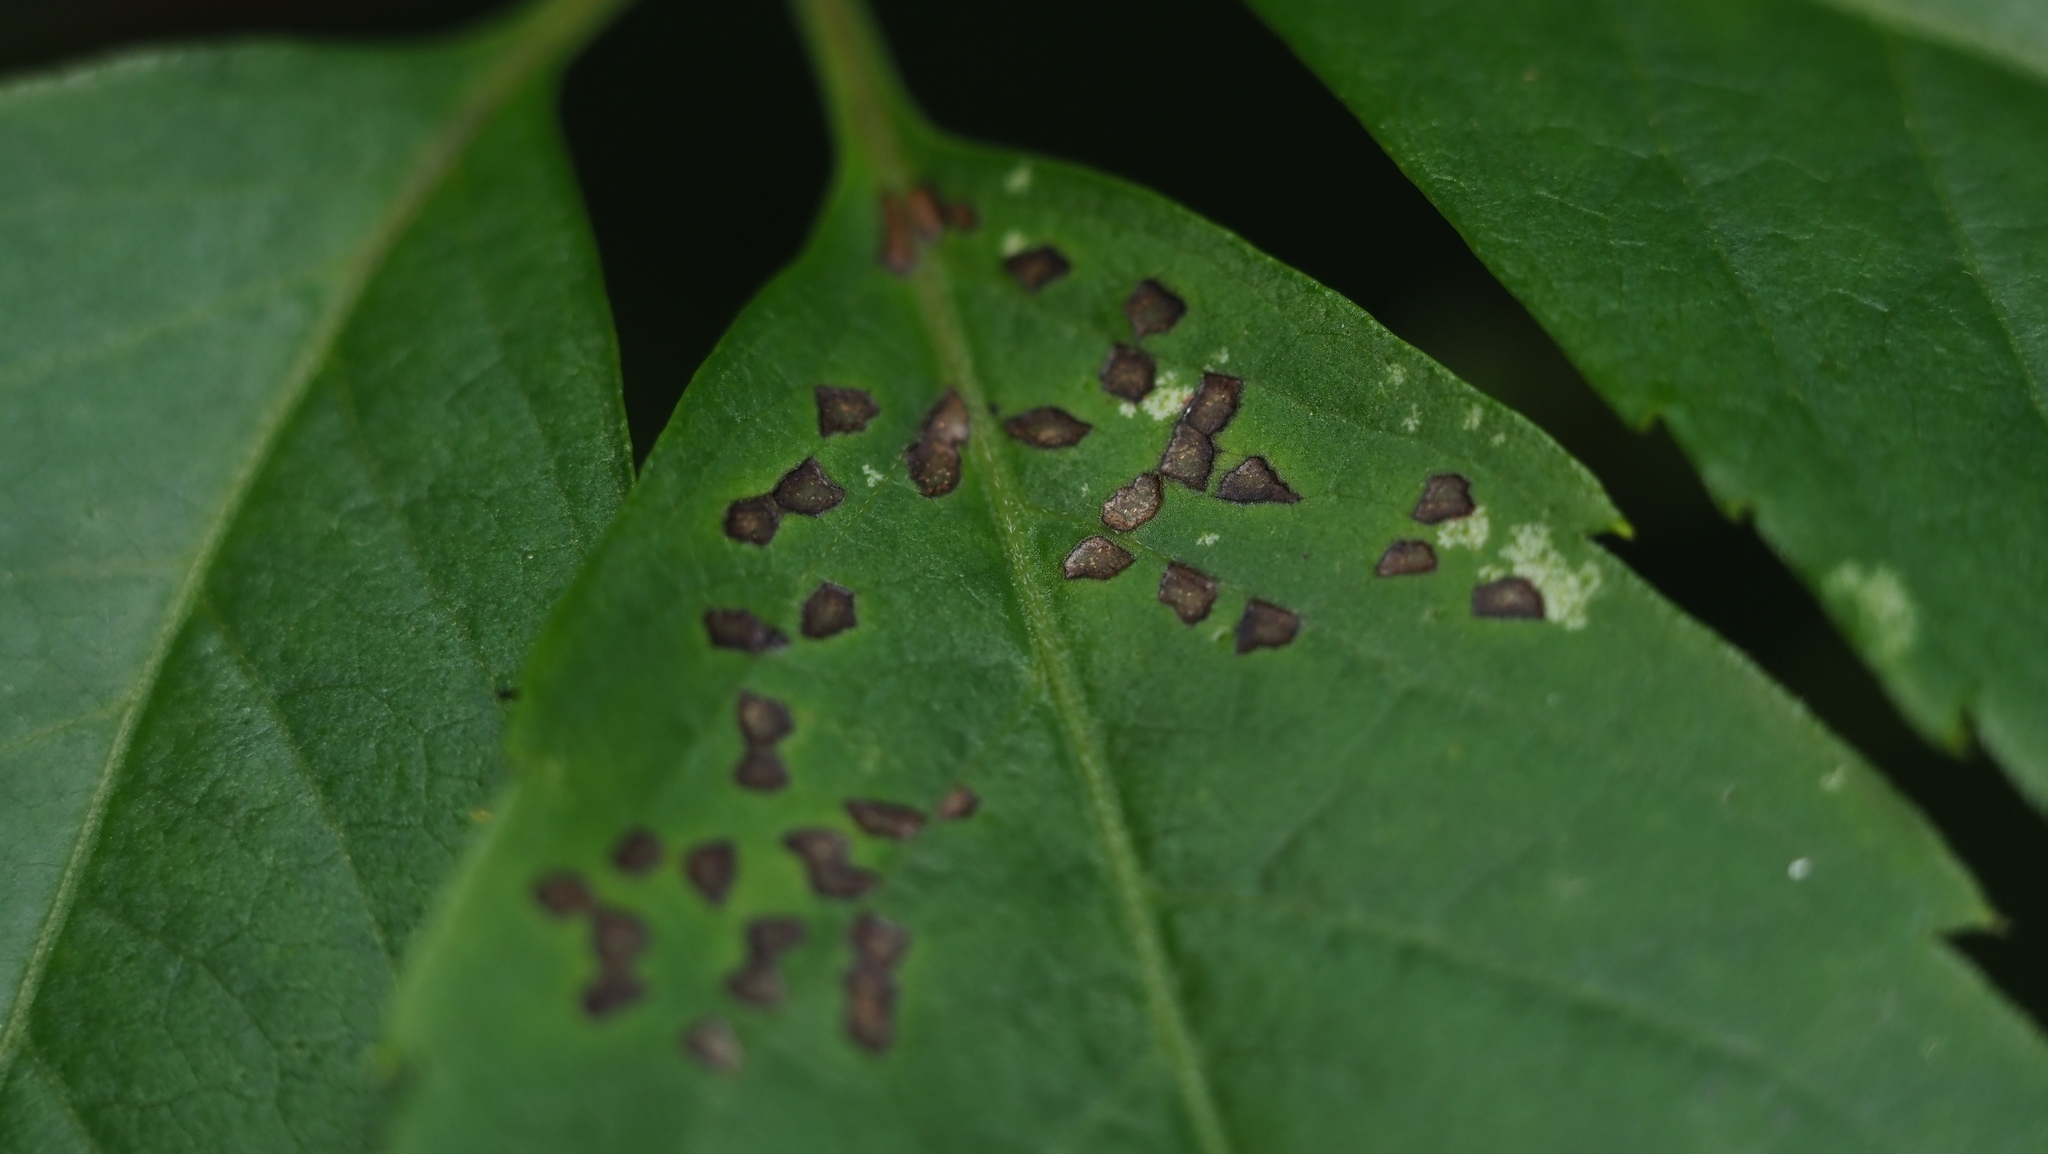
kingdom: Animalia
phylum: Arthropoda
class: Insecta
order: Hemiptera
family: Miridae
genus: Poecilocapsus
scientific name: Poecilocapsus lineatus
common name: Four-lined plant bug
